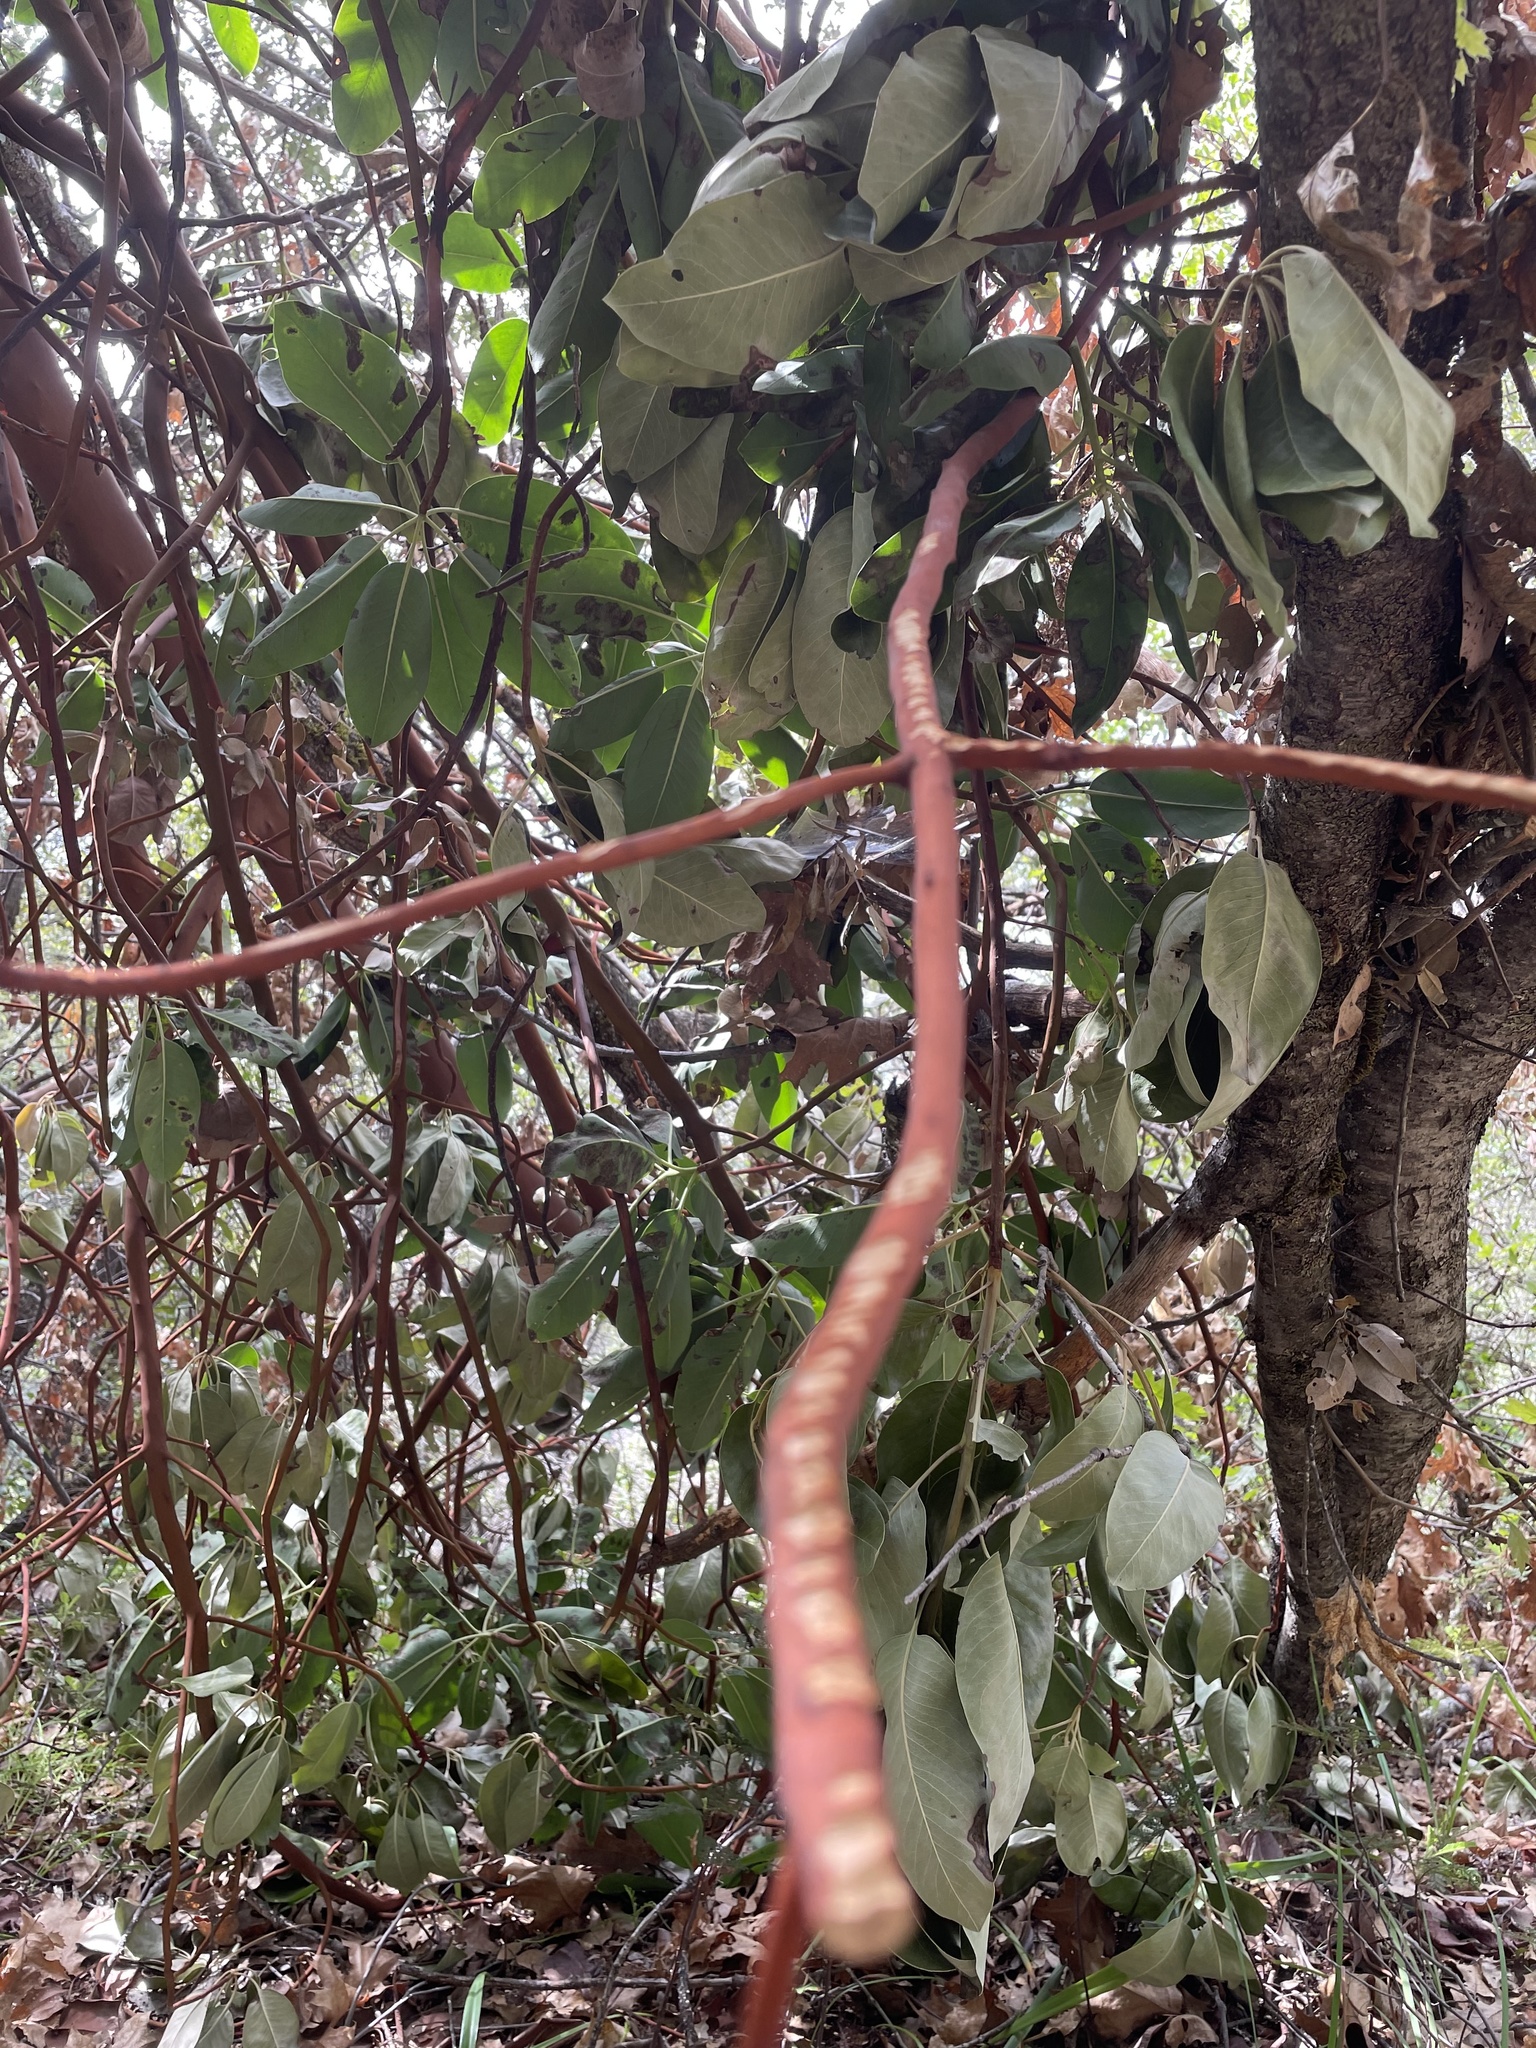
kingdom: Plantae
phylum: Tracheophyta
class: Magnoliopsida
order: Ericales
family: Ericaceae
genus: Arbutus
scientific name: Arbutus menziesii
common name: Pacific madrone
